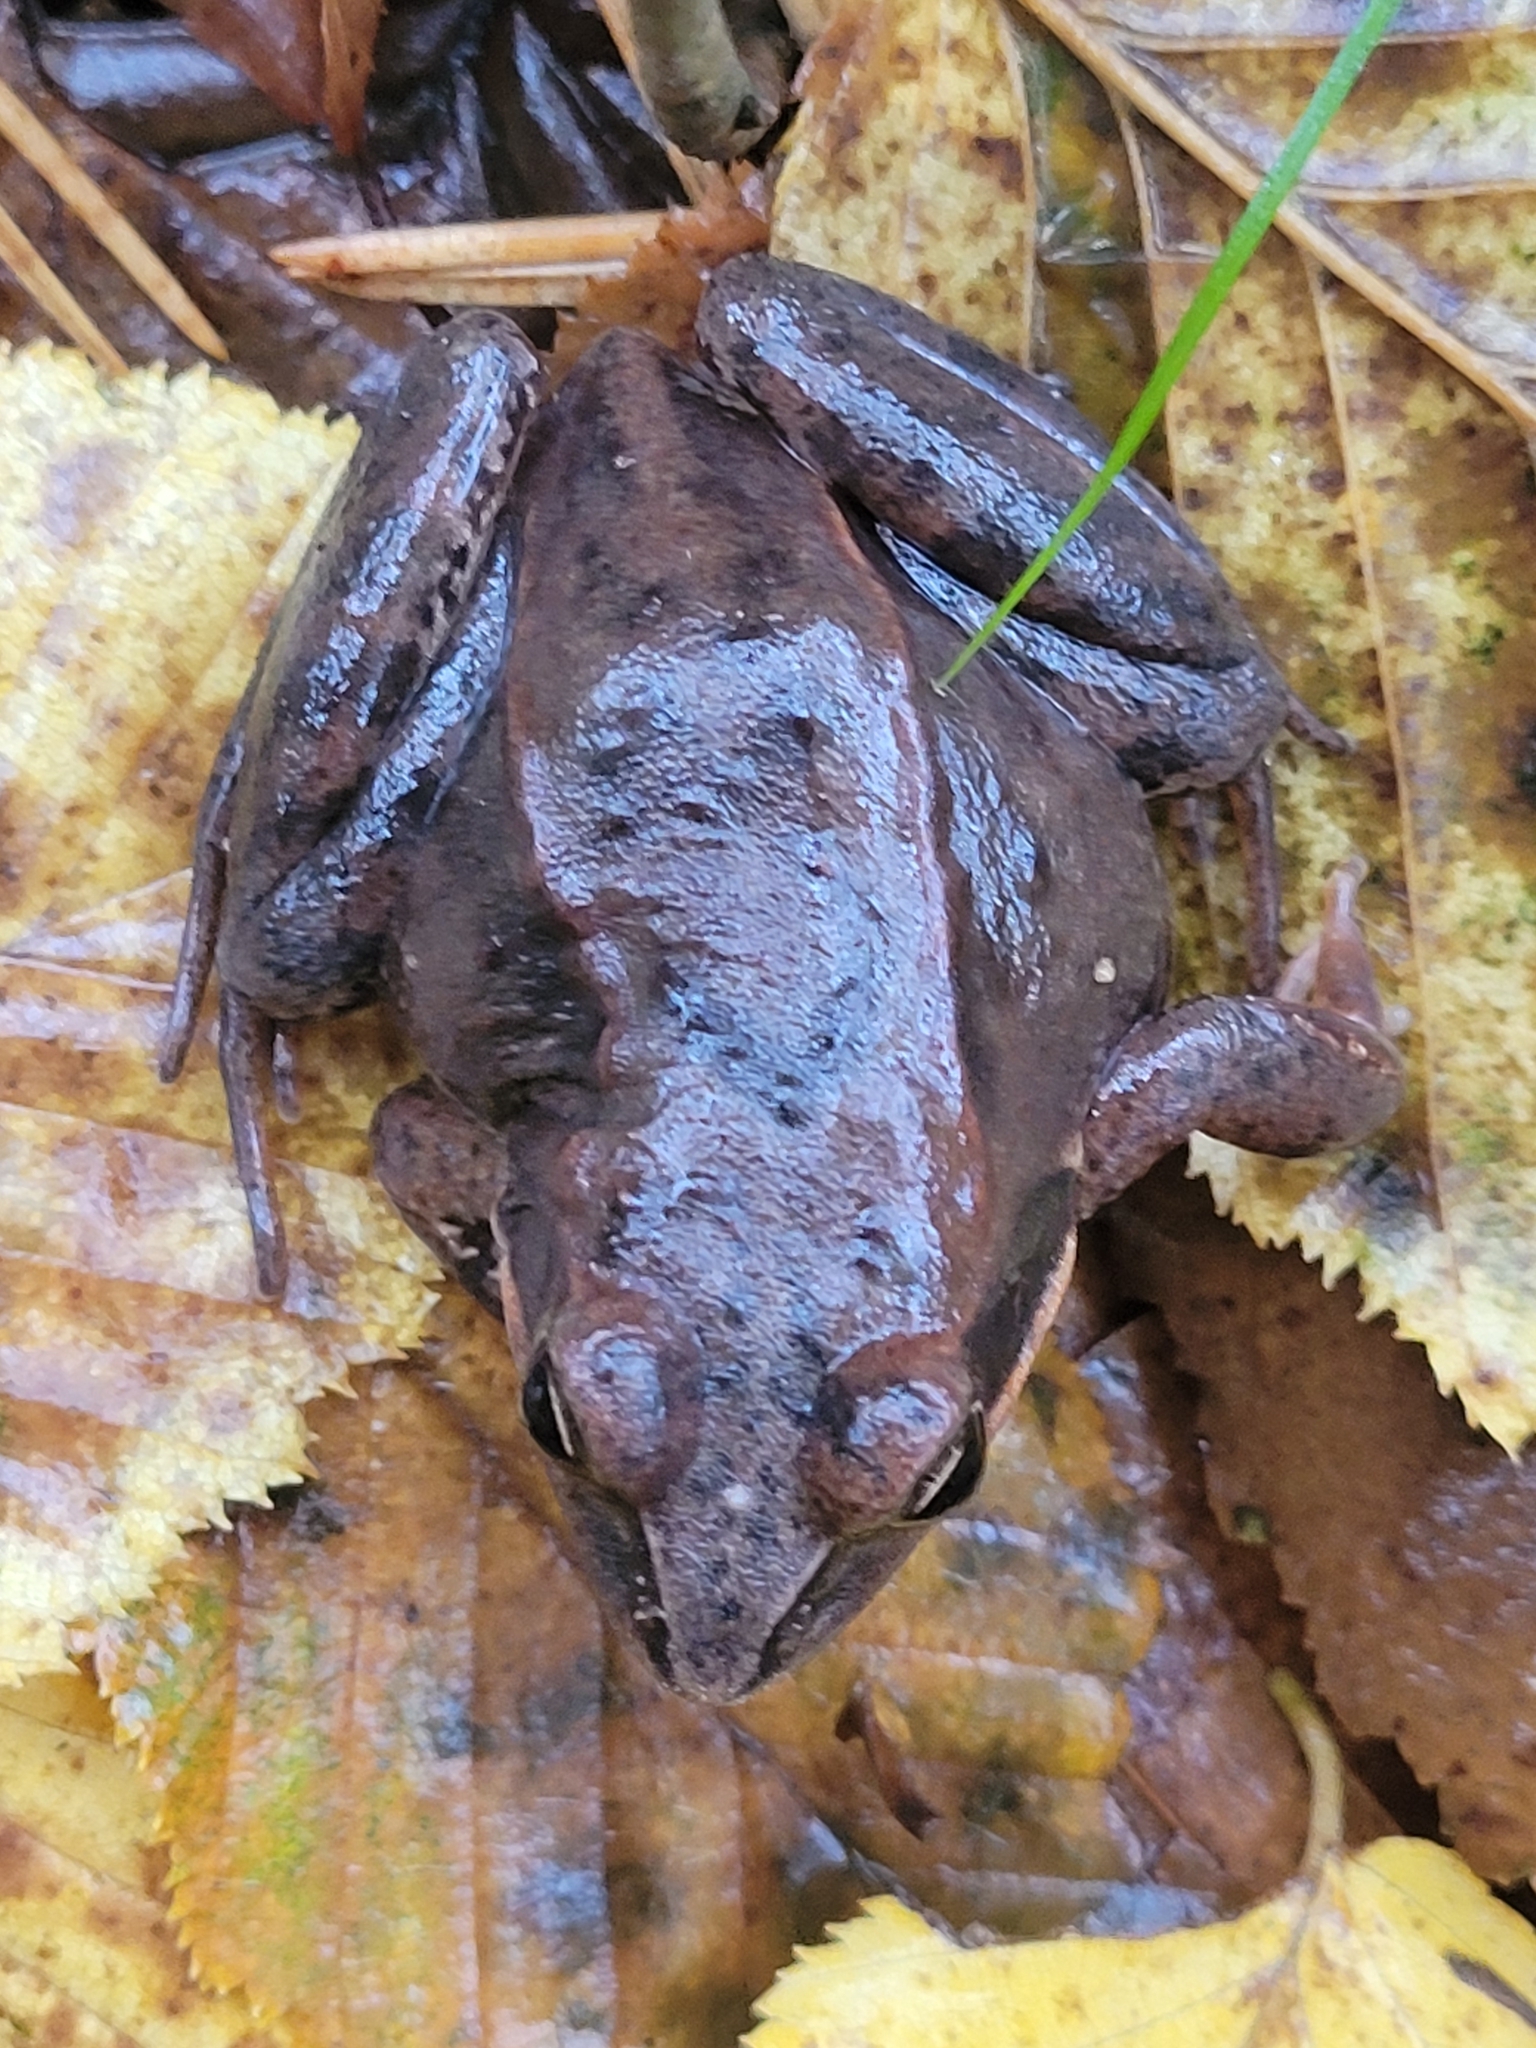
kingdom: Animalia
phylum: Chordata
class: Amphibia
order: Anura
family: Ranidae
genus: Rana
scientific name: Rana arvalis
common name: Moor frog
